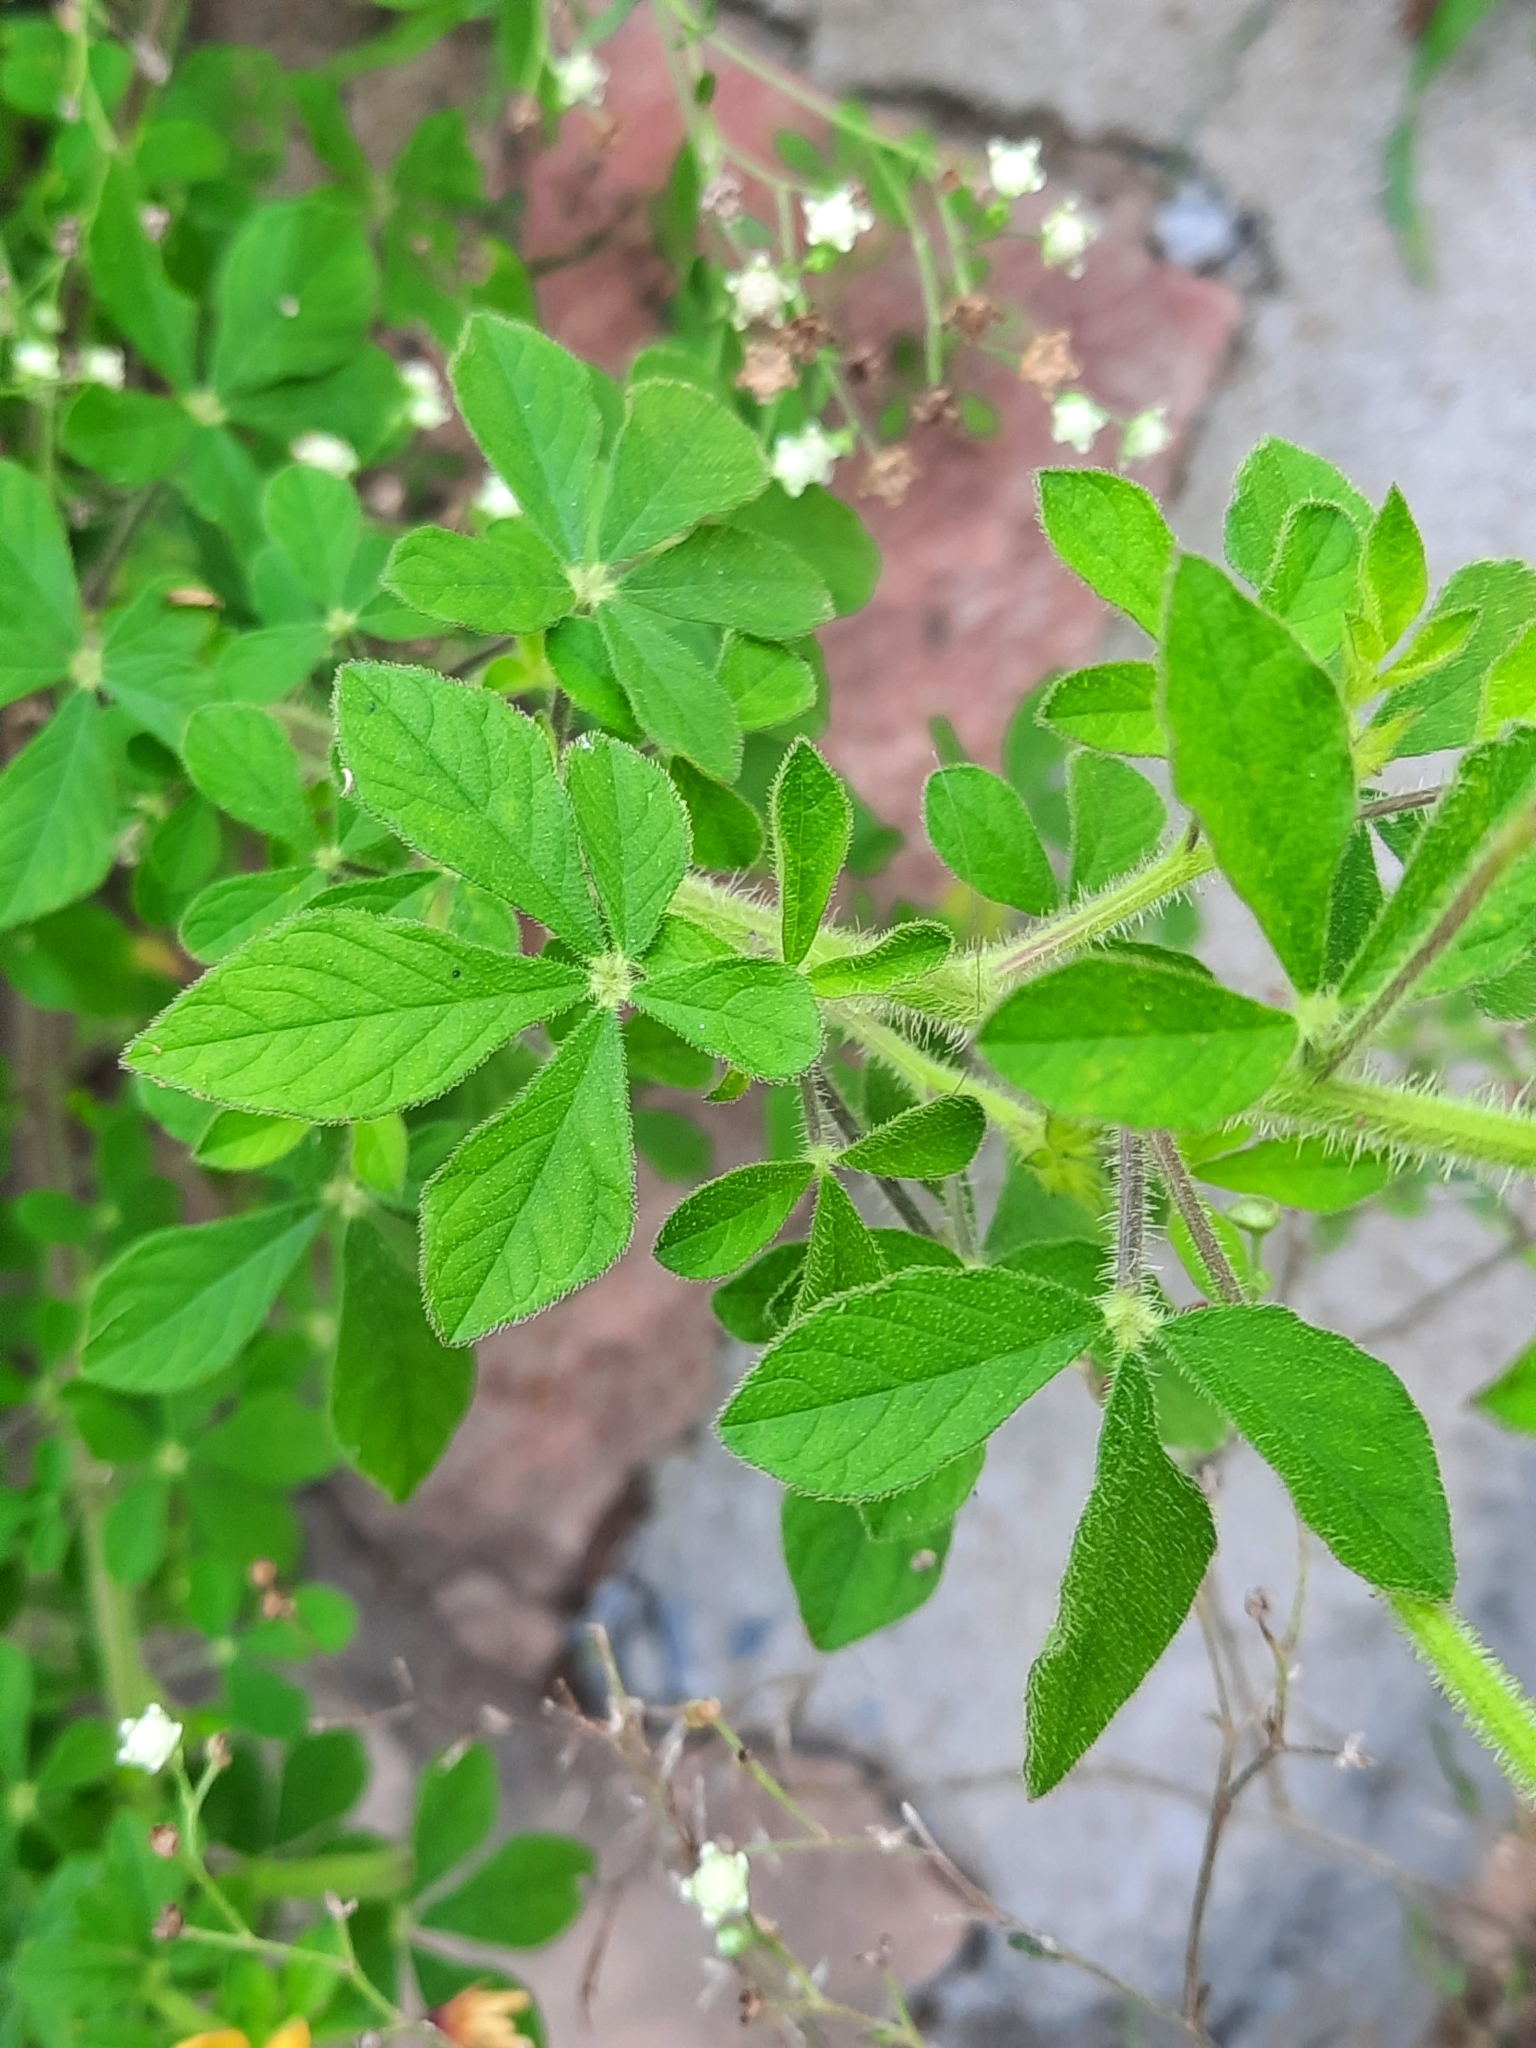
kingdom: Plantae
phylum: Tracheophyta
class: Magnoliopsida
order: Brassicales
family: Cleomaceae
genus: Arivela
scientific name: Arivela viscosa
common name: Asian spiderflower
